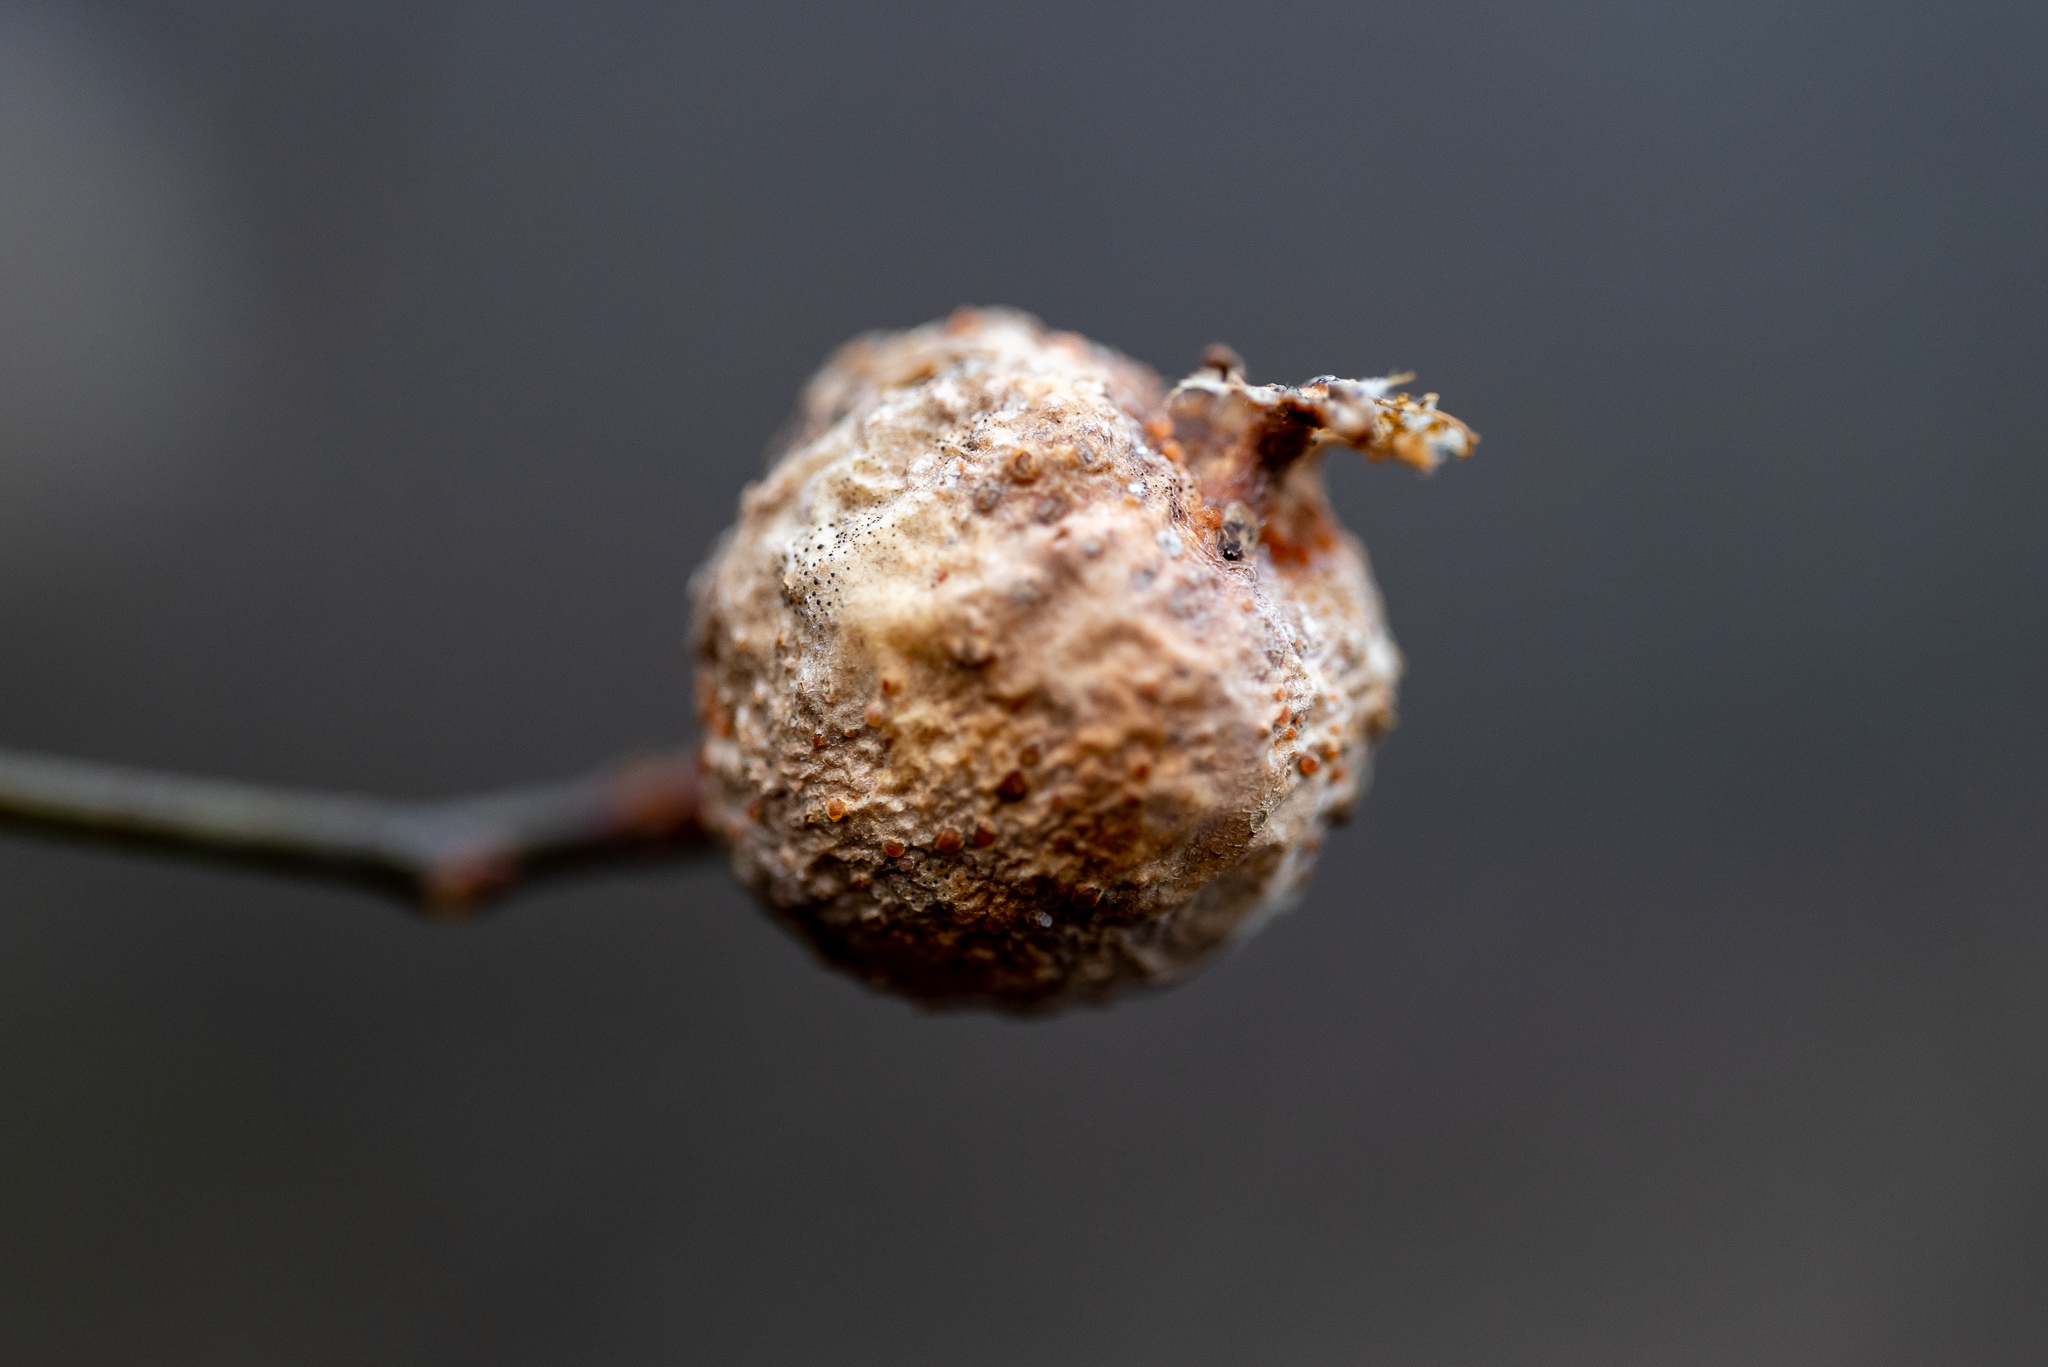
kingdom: Animalia
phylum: Arthropoda
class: Insecta
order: Hemiptera
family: Aphalaridae
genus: Pachypsylla
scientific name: Pachypsylla venusta
